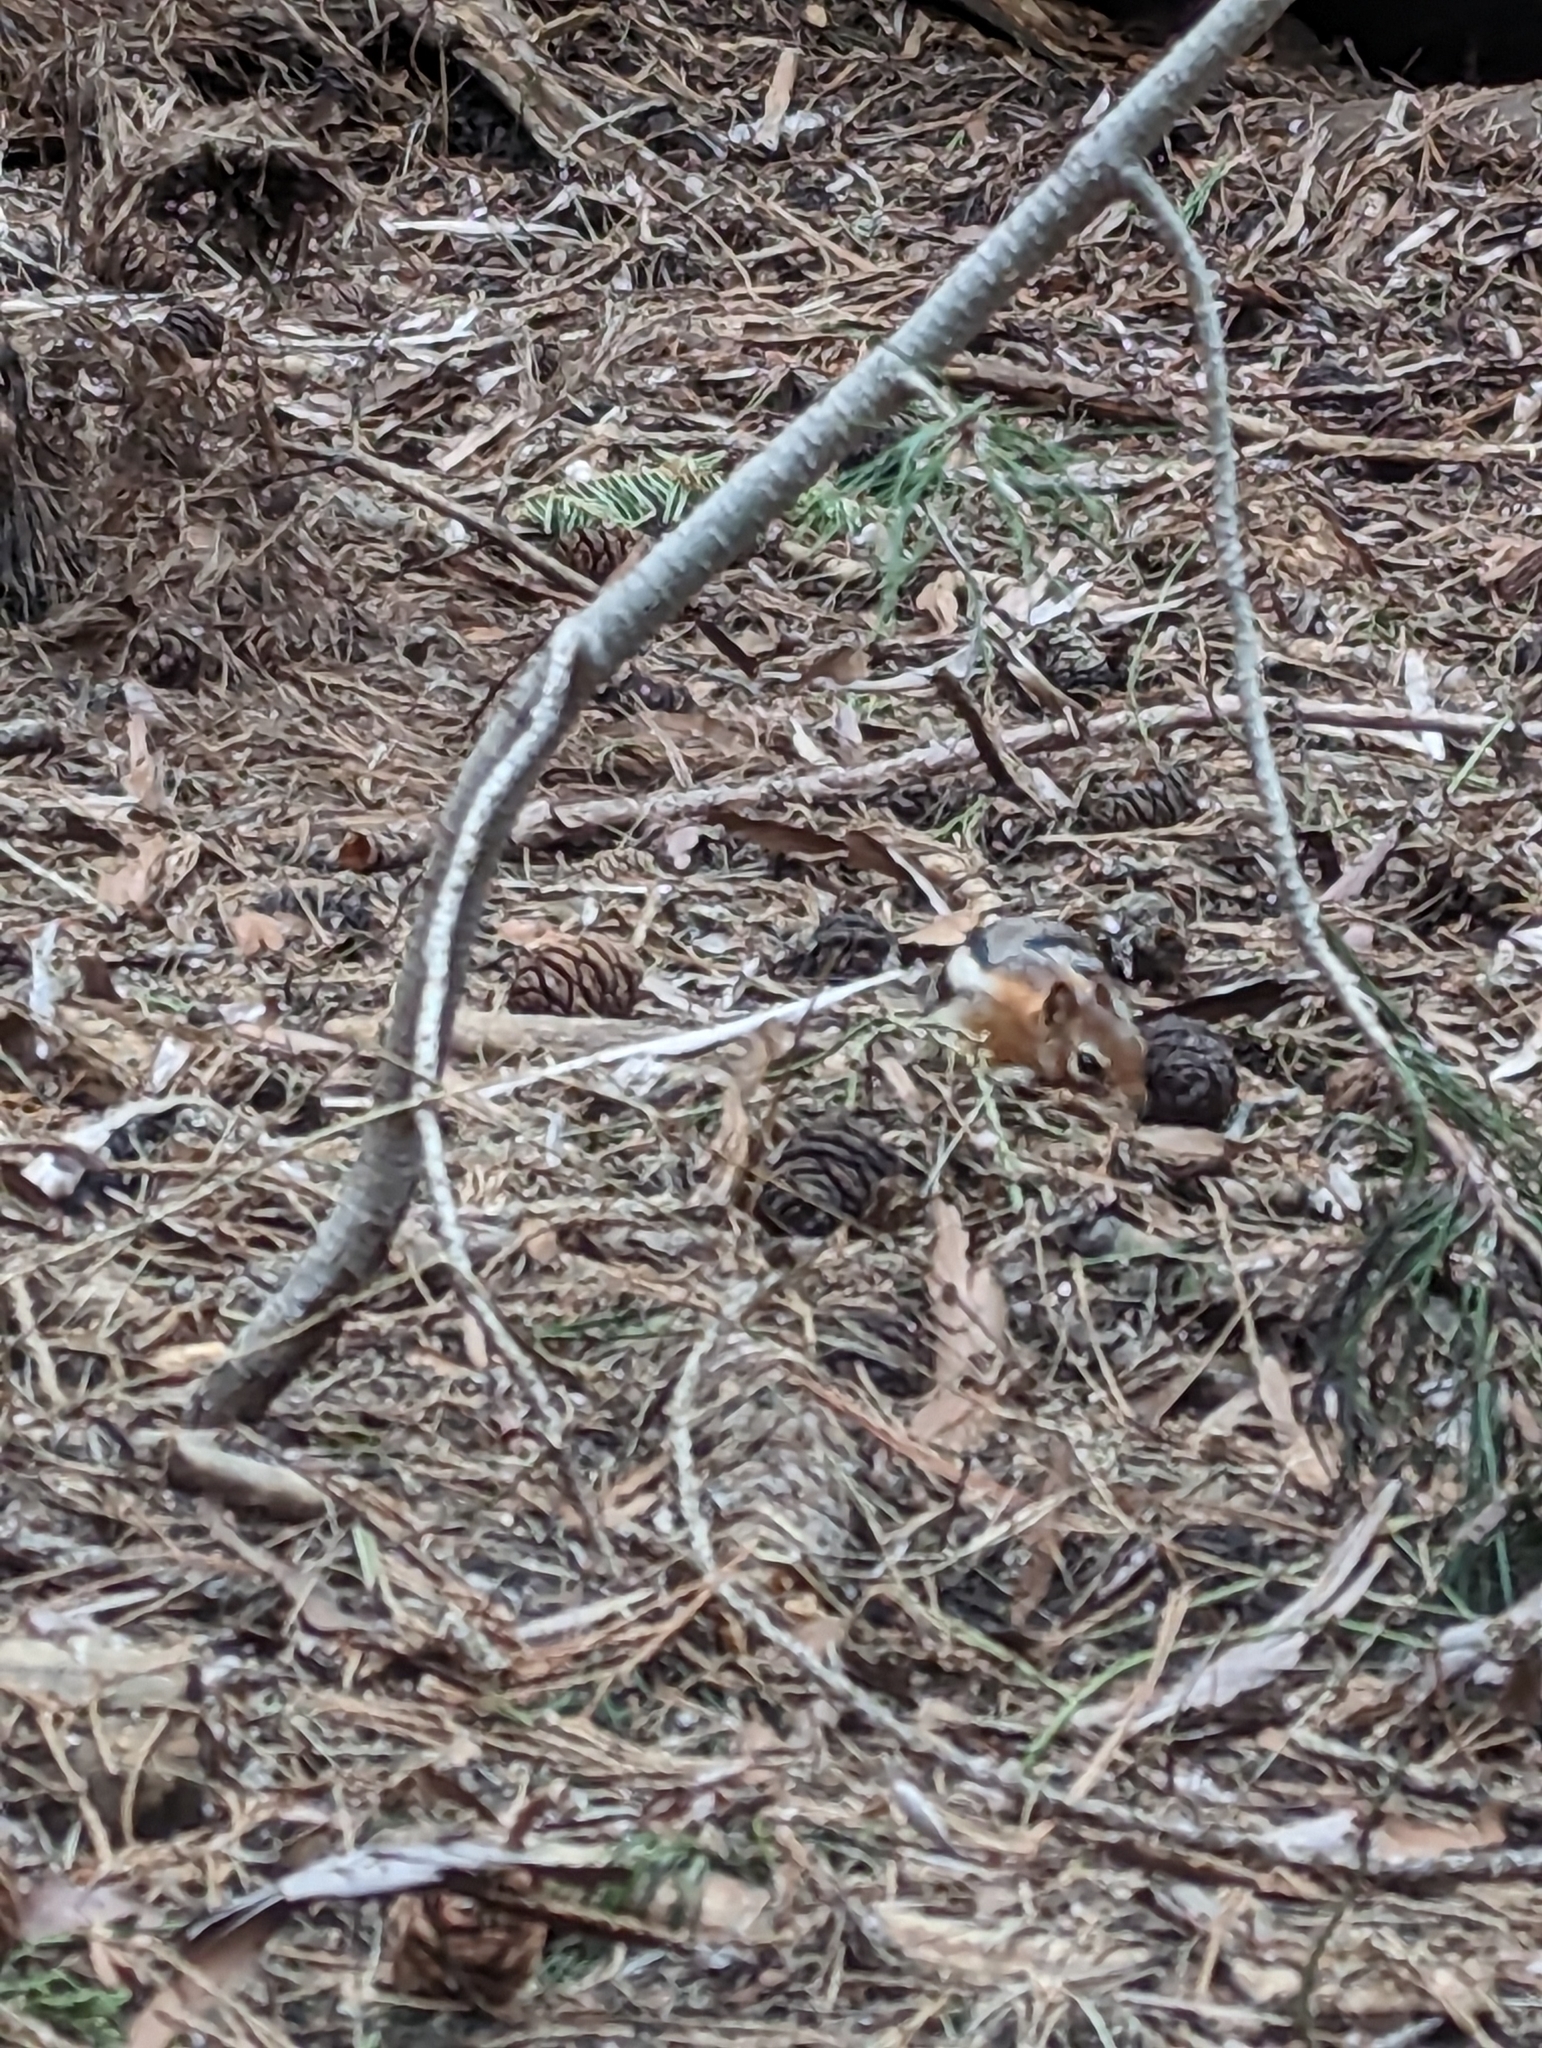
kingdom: Animalia
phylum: Chordata
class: Mammalia
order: Rodentia
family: Sciuridae
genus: Callospermophilus
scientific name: Callospermophilus lateralis
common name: Golden-mantled ground squirrel
